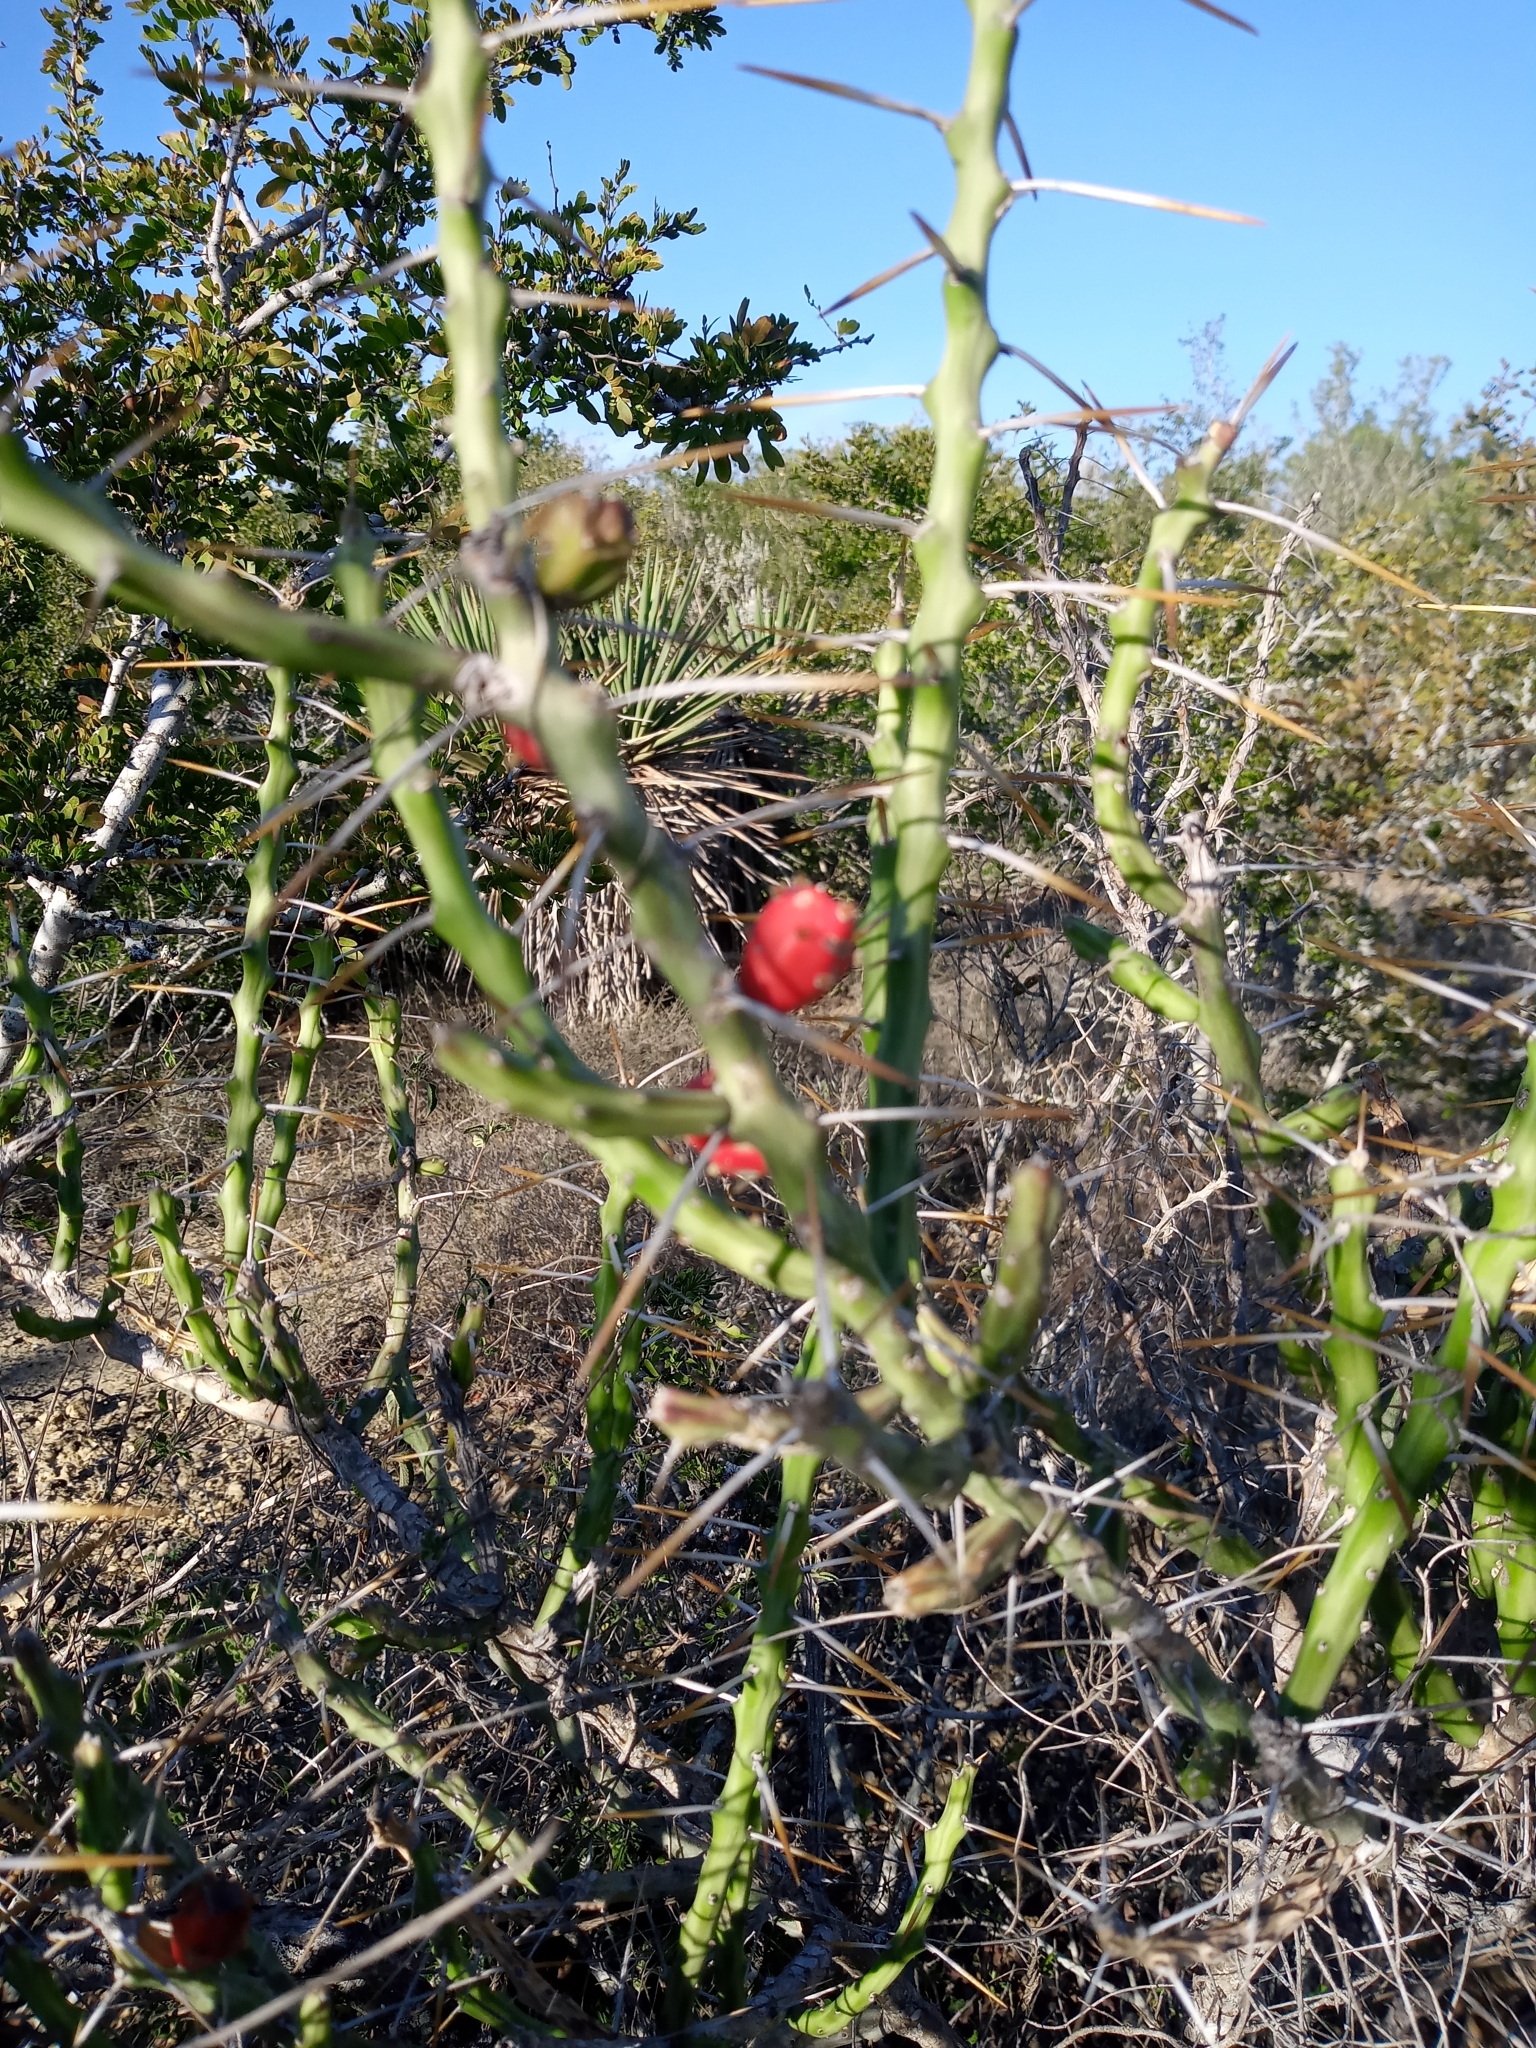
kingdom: Plantae
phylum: Tracheophyta
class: Magnoliopsida
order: Caryophyllales
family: Cactaceae
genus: Cylindropuntia
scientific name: Cylindropuntia leptocaulis
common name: Christmas cactus
